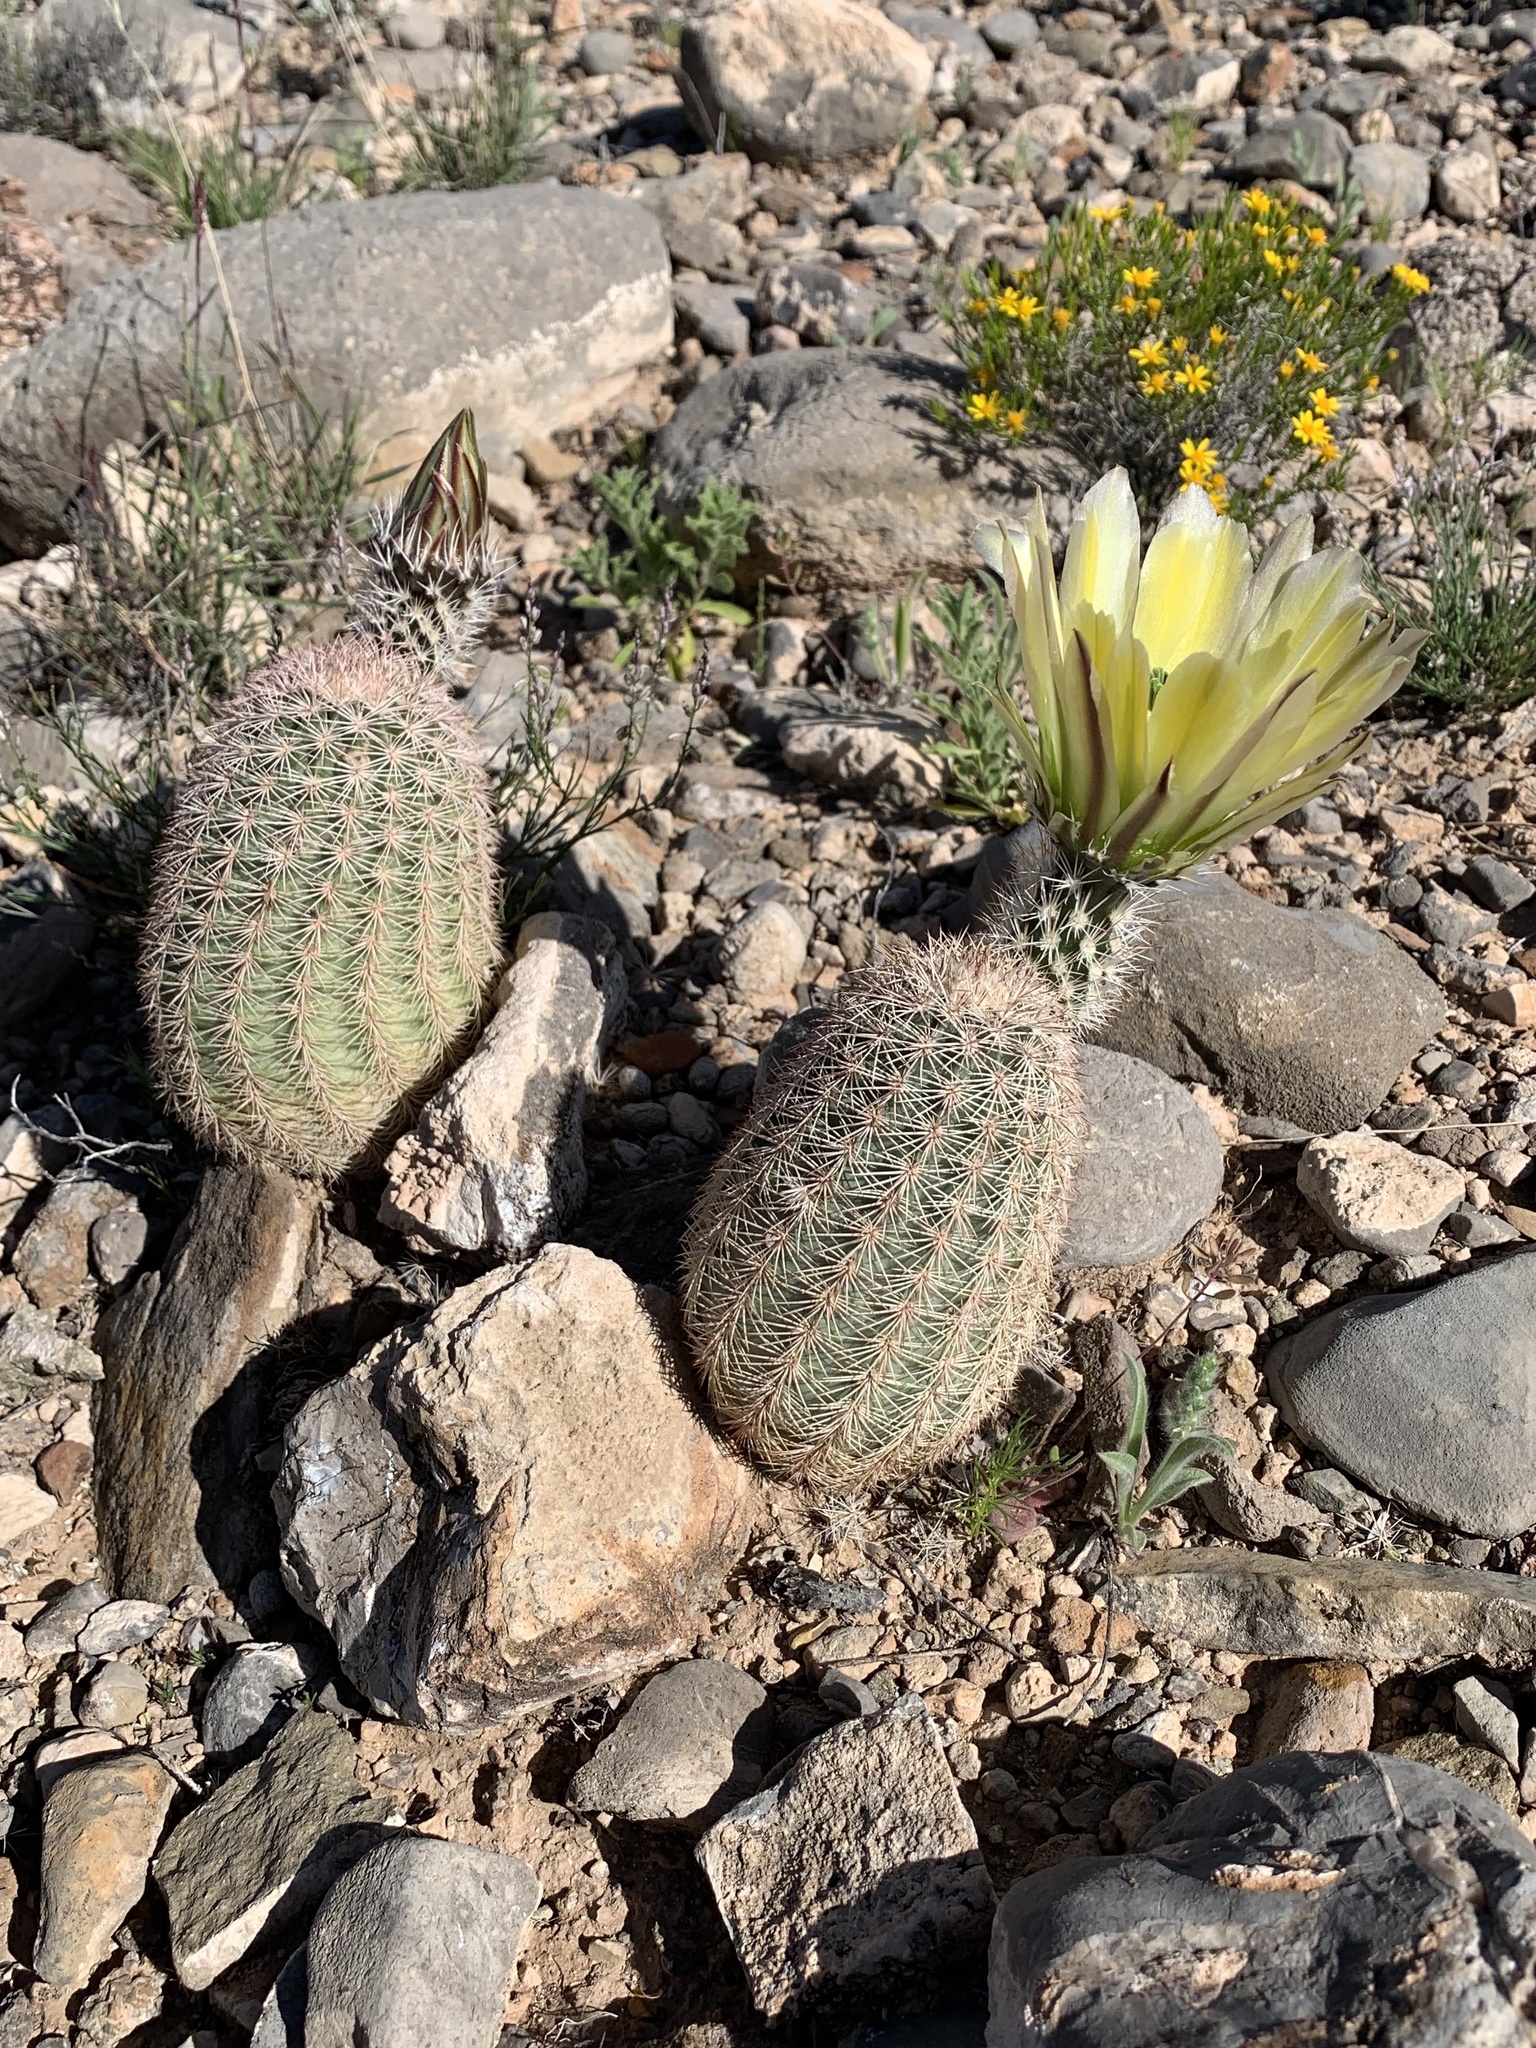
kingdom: Plantae
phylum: Tracheophyta
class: Magnoliopsida
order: Caryophyllales
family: Cactaceae
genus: Echinocereus
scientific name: Echinocereus dasyacanthus
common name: Spiny hedgehog cactus
